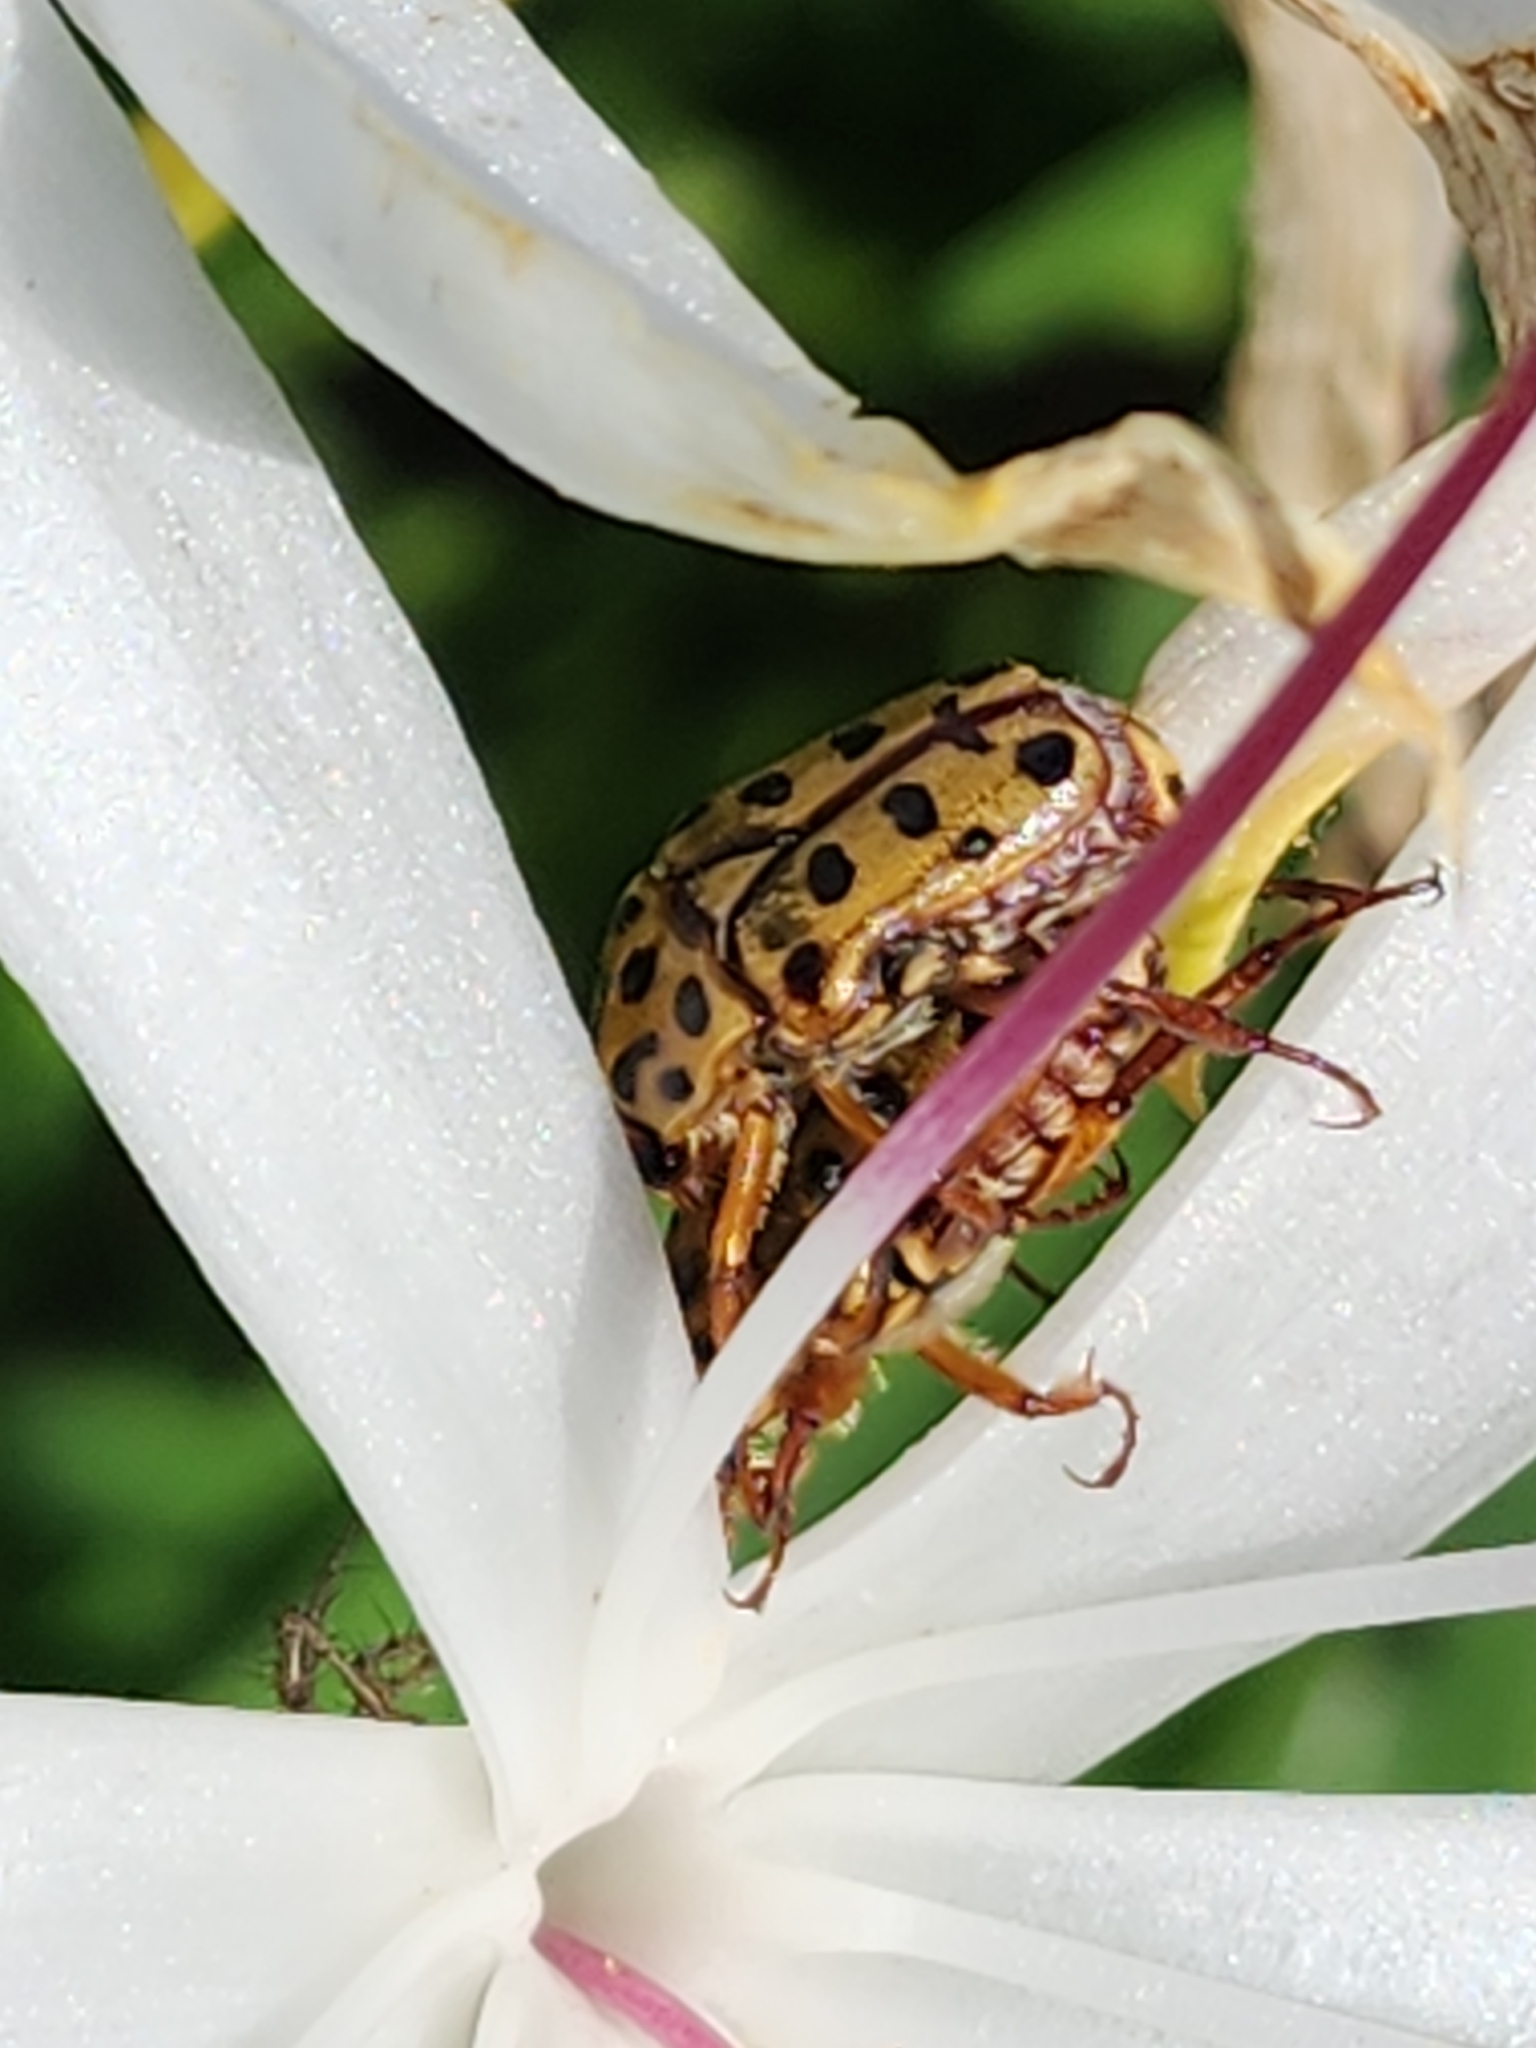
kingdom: Animalia
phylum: Arthropoda
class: Insecta
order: Coleoptera
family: Scarabaeidae
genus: Neorrhina
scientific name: Neorrhina punctatum
